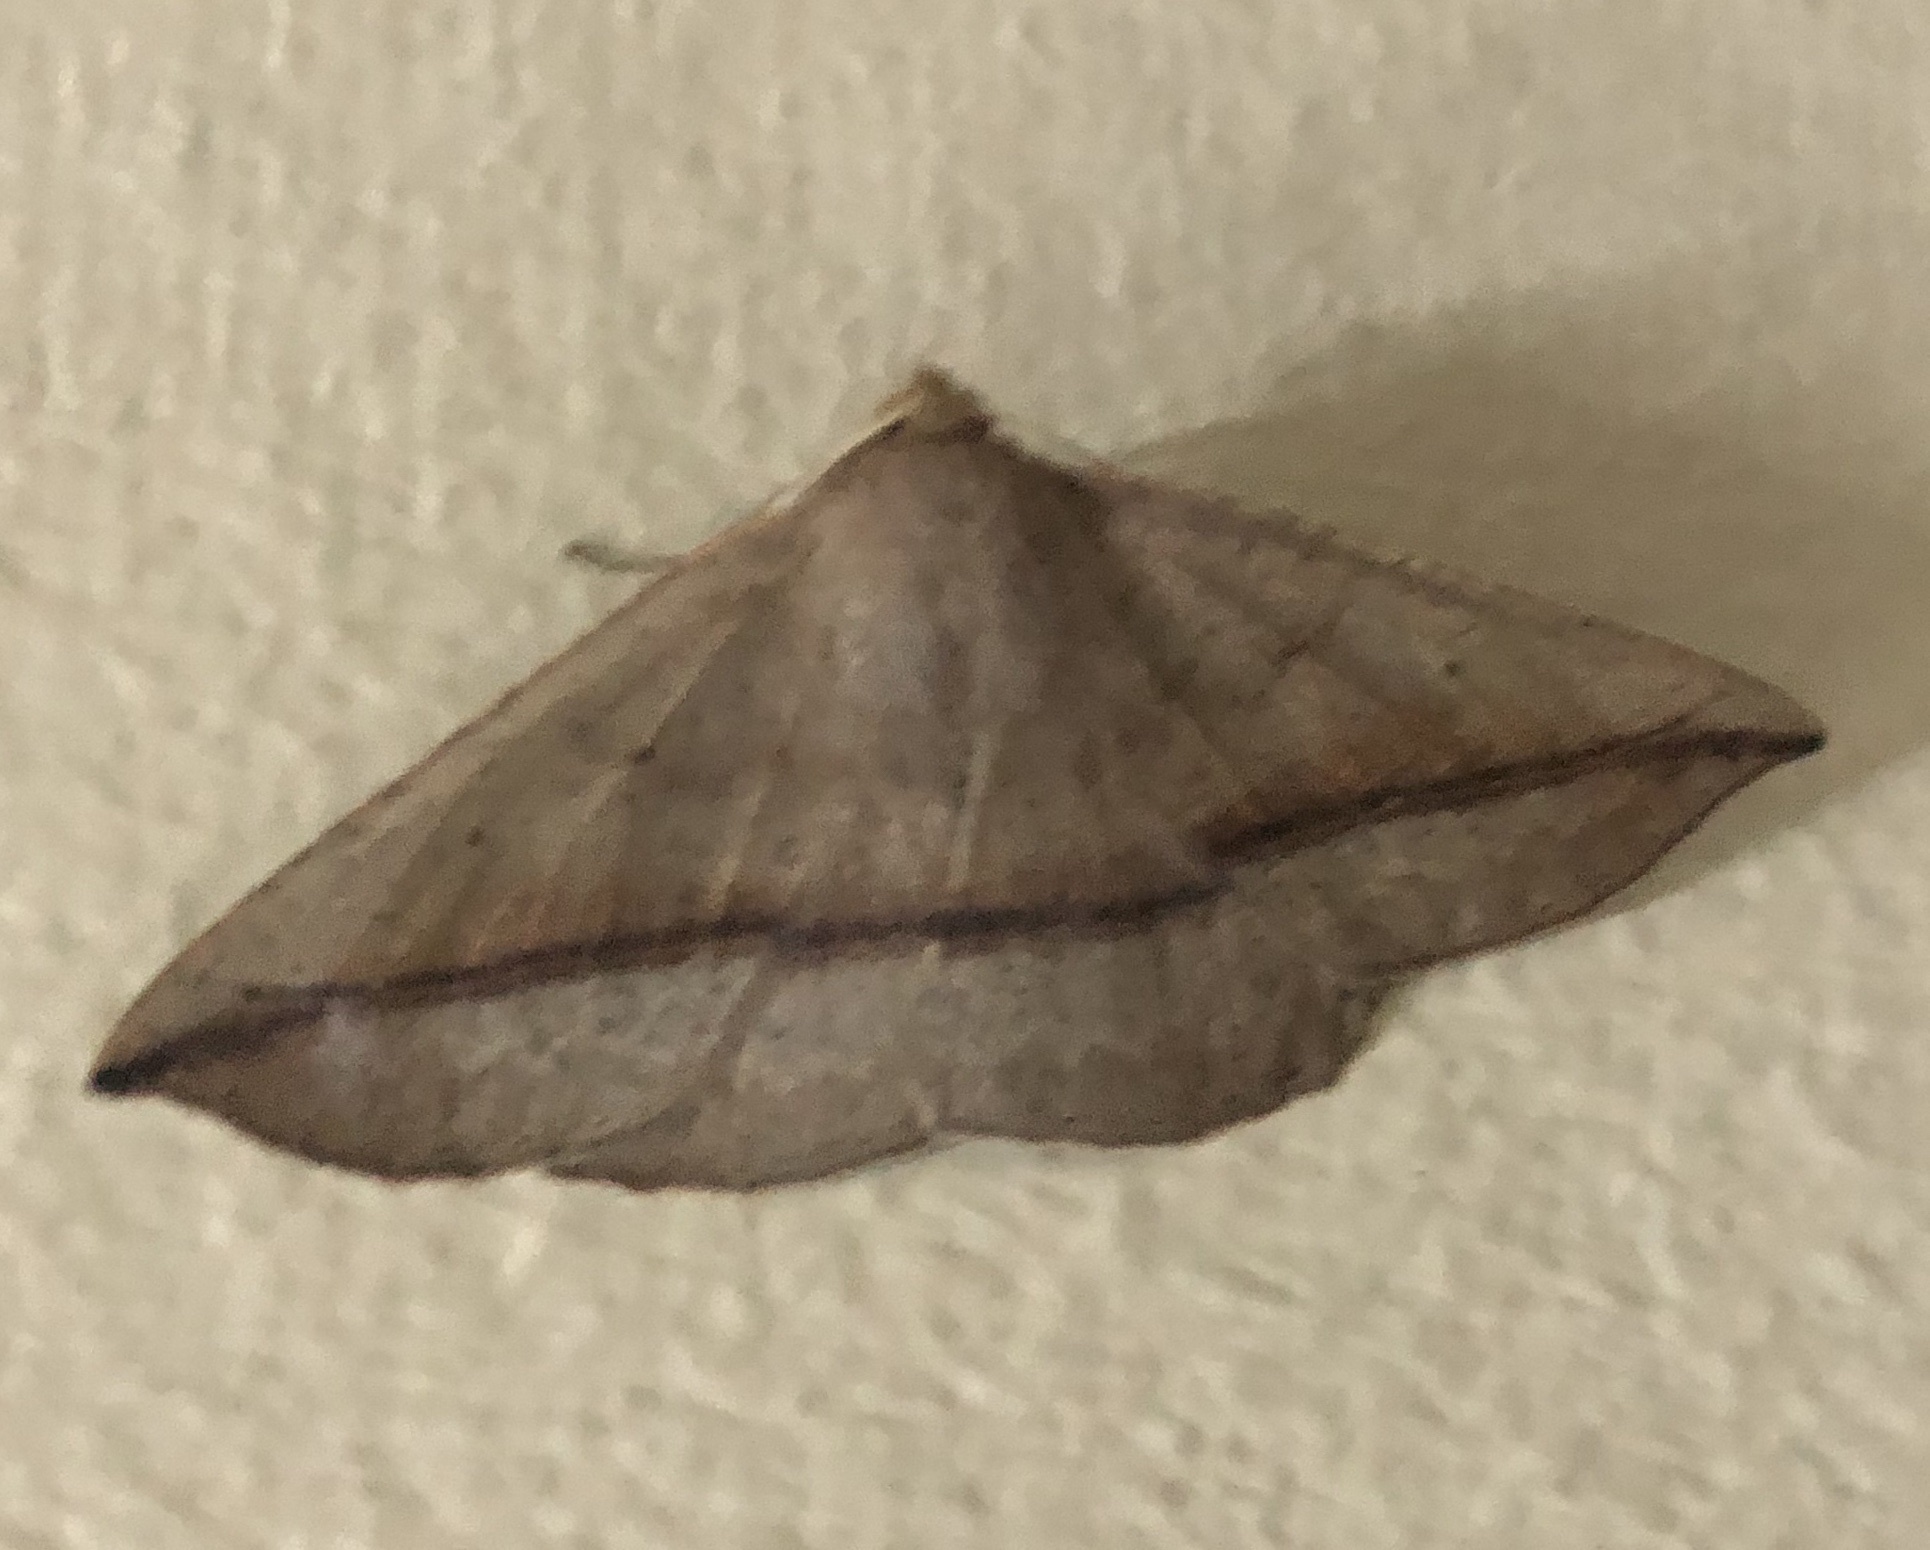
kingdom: Animalia
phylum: Arthropoda
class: Insecta
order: Lepidoptera
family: Geometridae
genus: Idiodes
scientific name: Idiodes apicata
